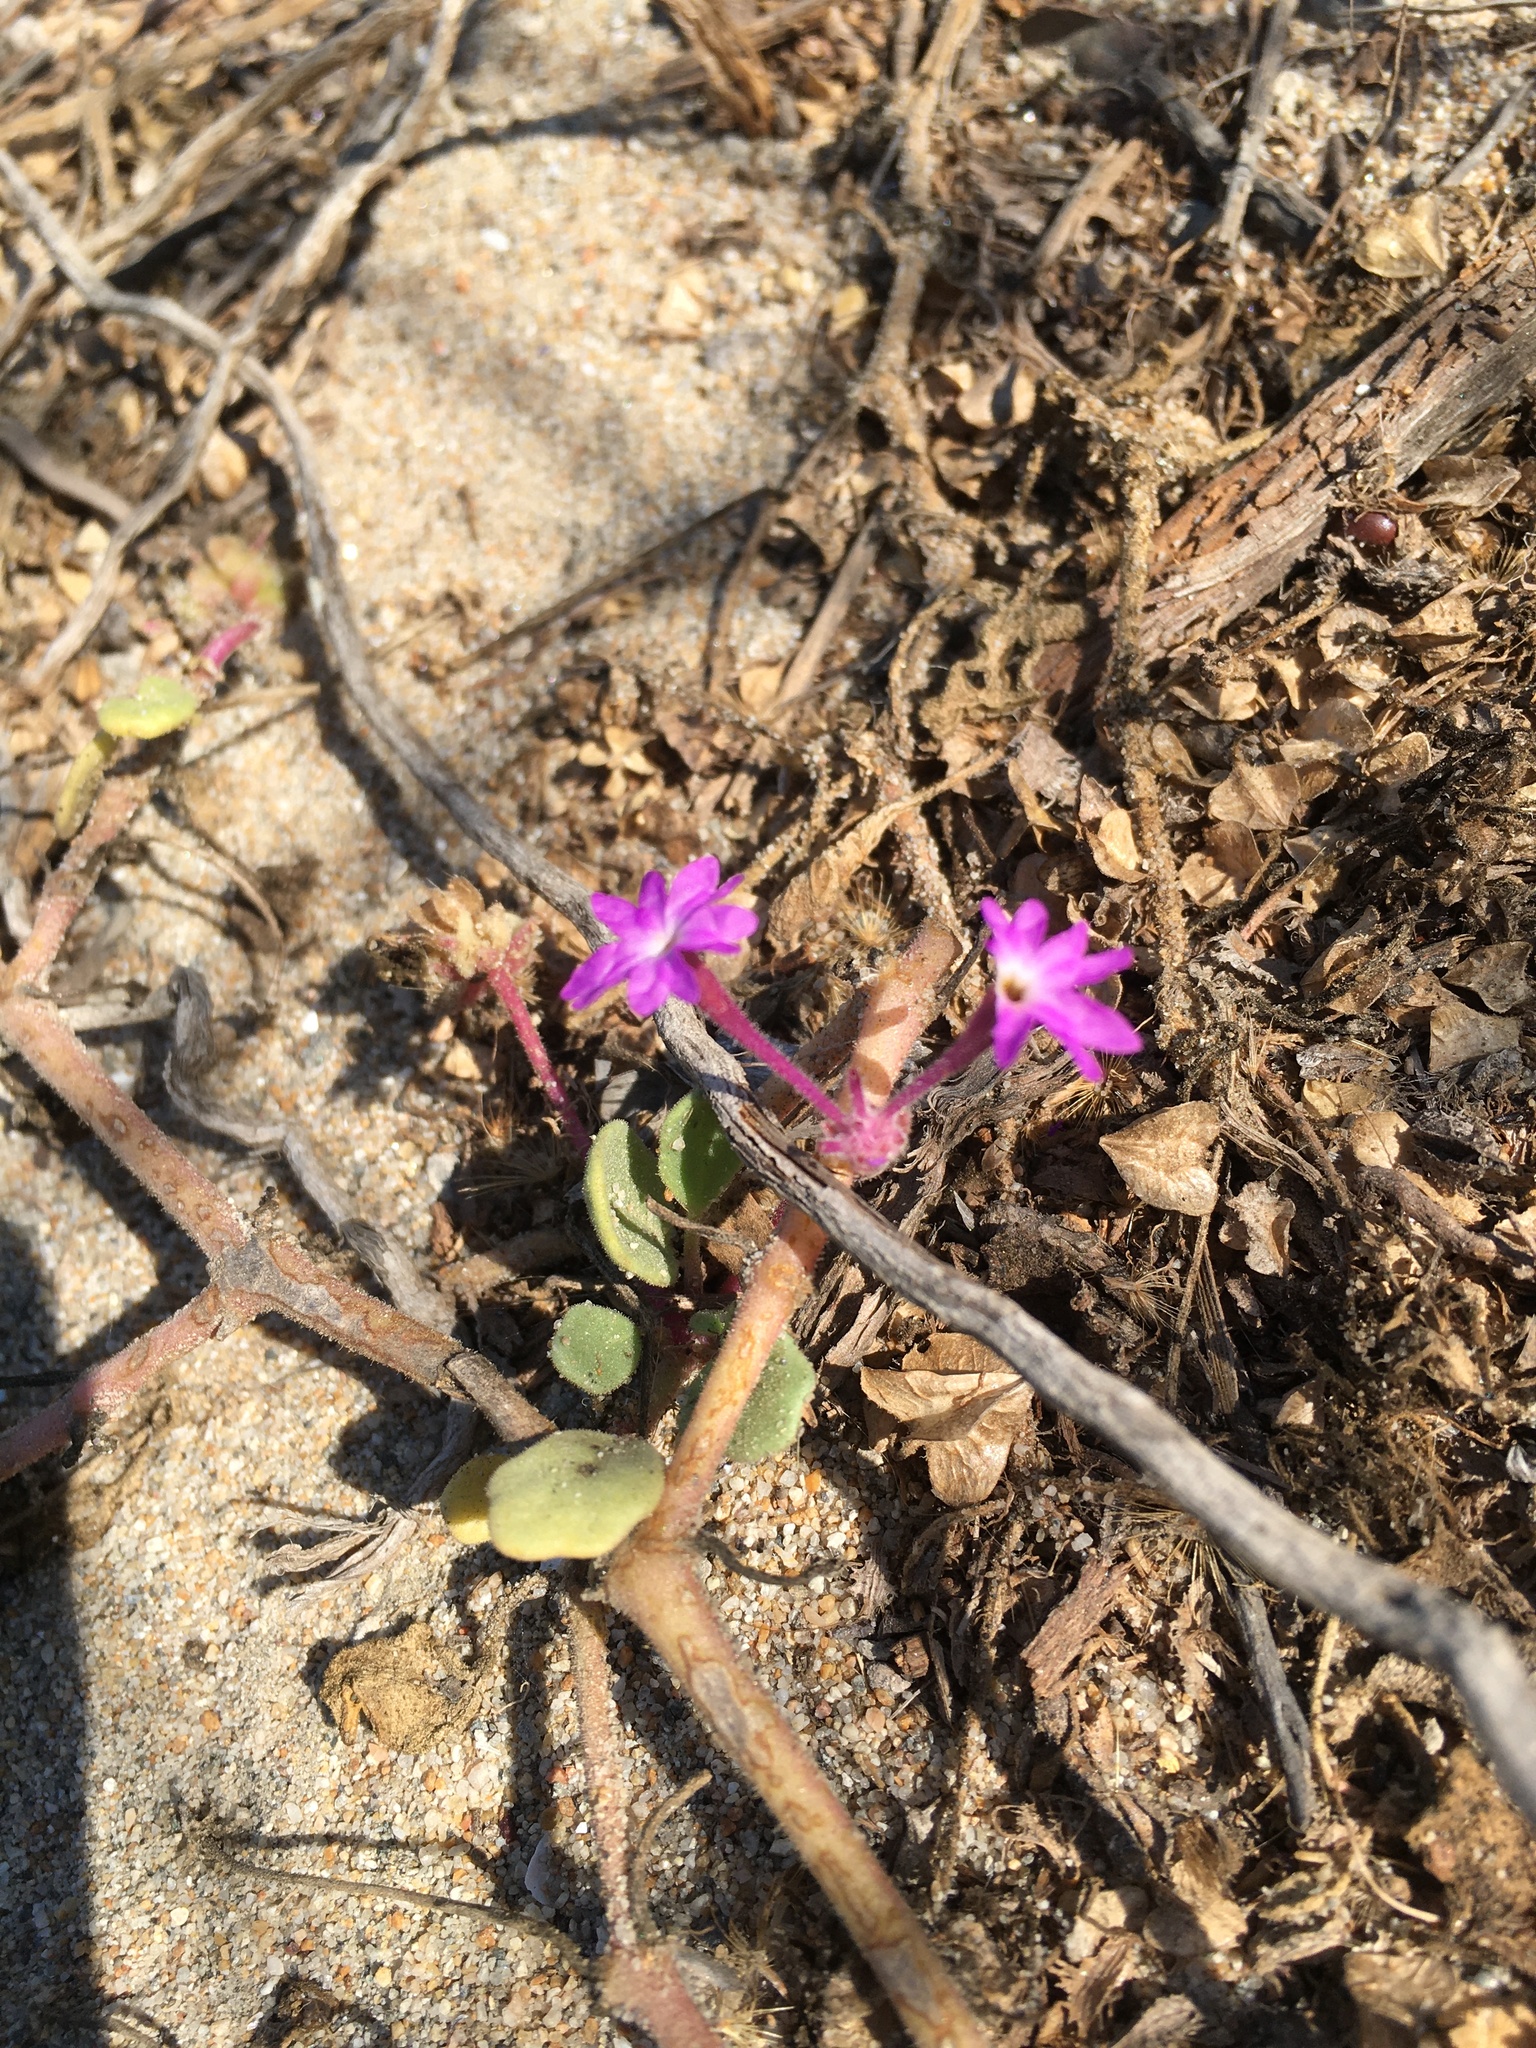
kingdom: Plantae
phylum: Tracheophyta
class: Magnoliopsida
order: Caryophyllales
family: Nyctaginaceae
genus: Abronia
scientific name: Abronia umbellata
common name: Sand-verbena
